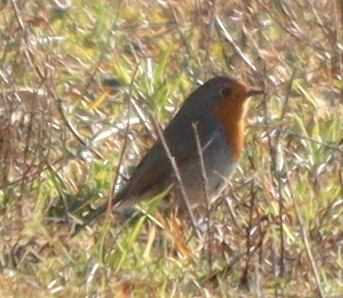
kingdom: Animalia
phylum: Chordata
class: Aves
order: Passeriformes
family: Muscicapidae
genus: Erithacus
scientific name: Erithacus rubecula
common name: European robin
